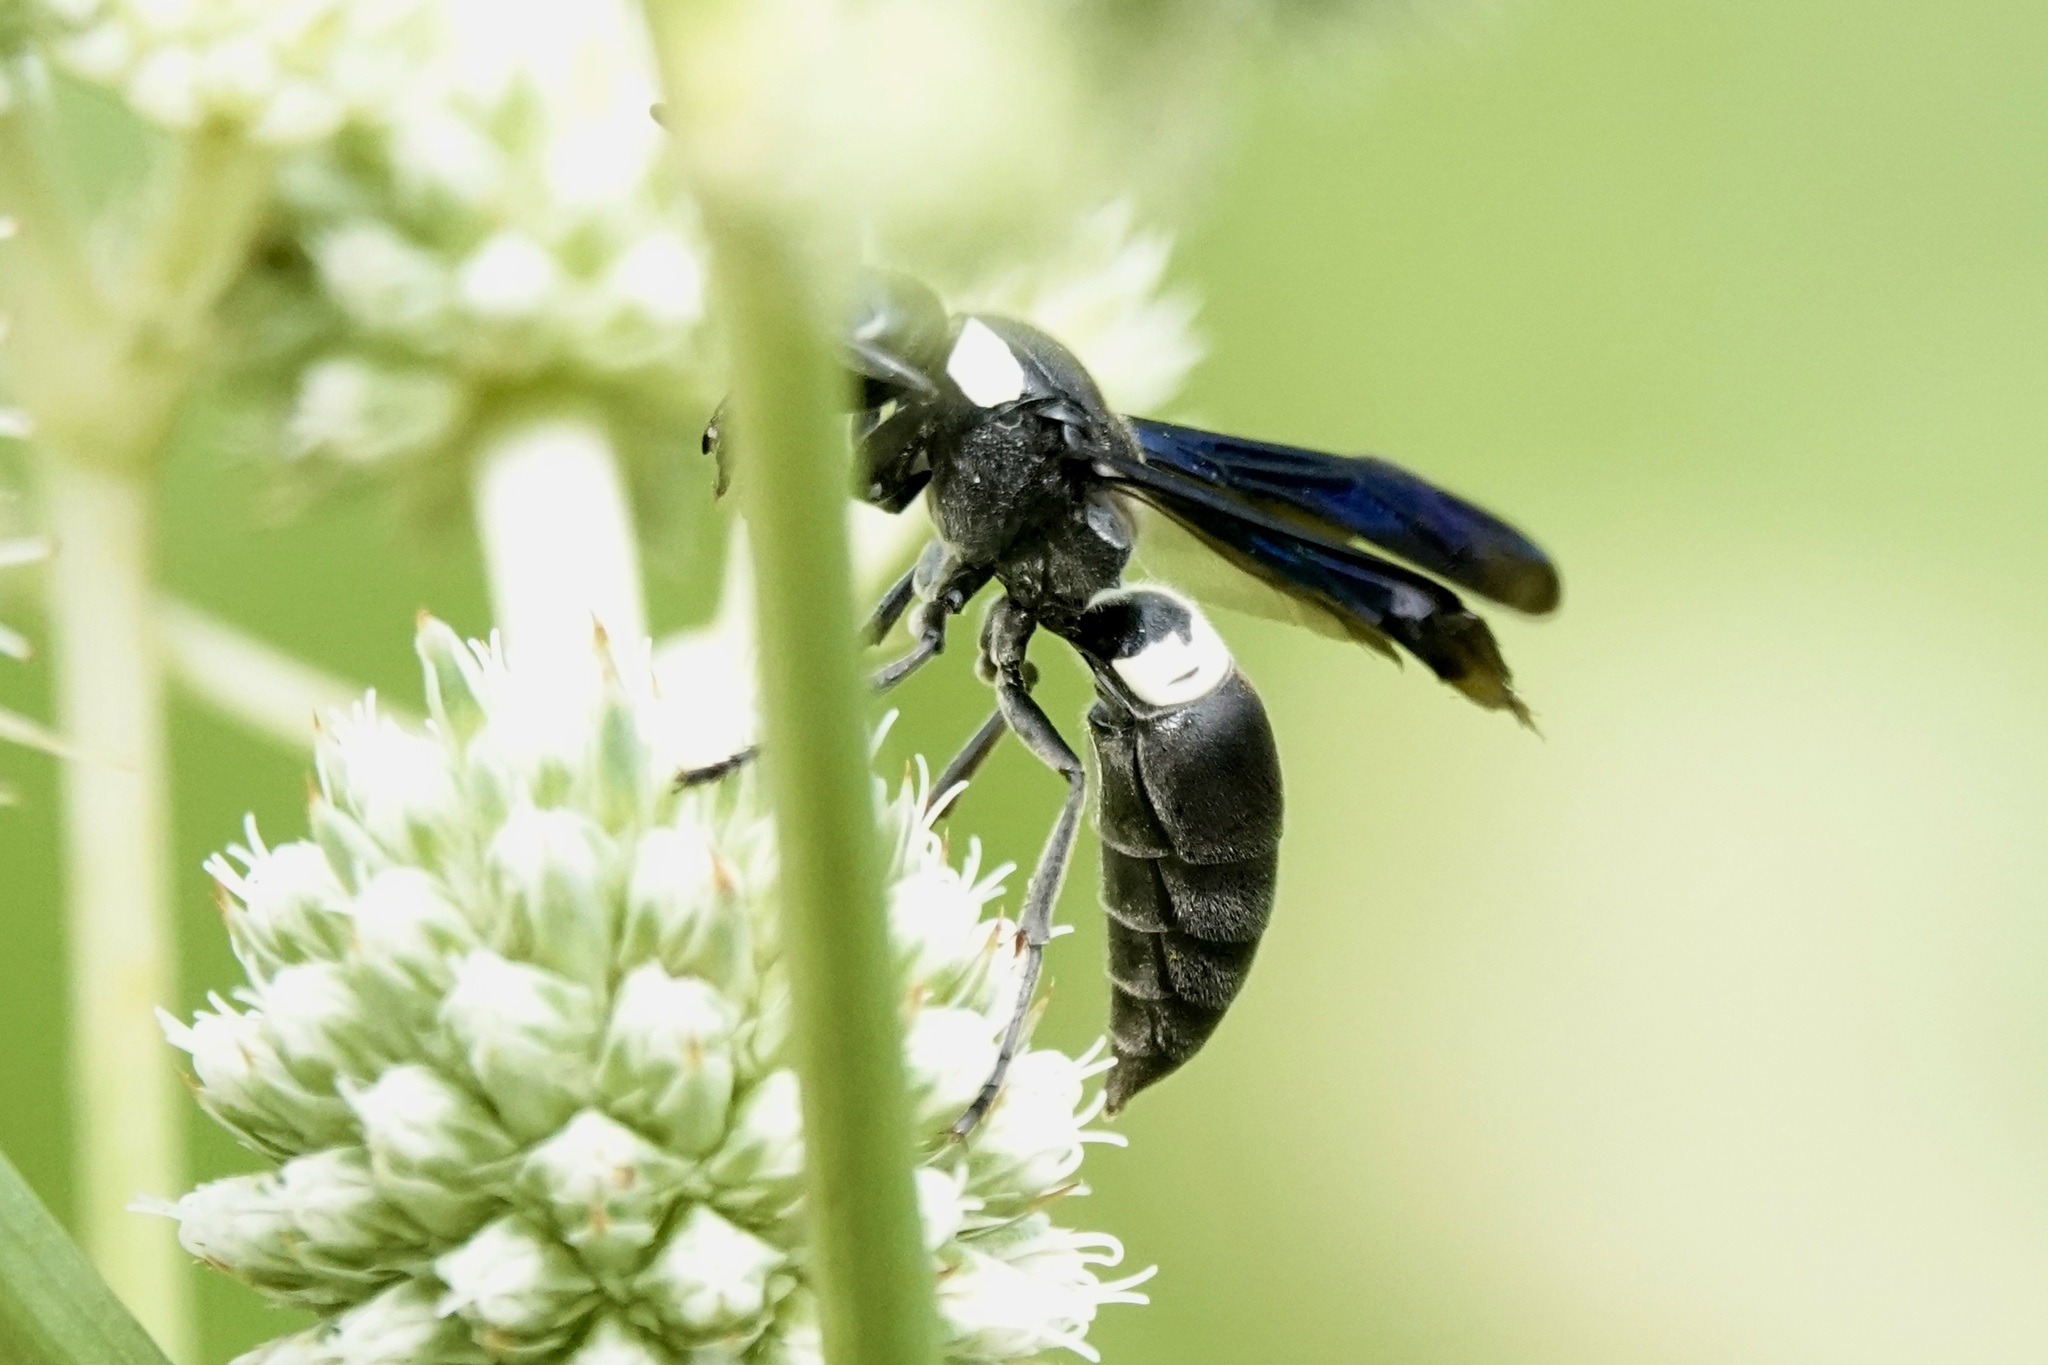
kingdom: Animalia
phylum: Arthropoda
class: Insecta
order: Hymenoptera
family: Eumenidae
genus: Monobia
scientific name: Monobia quadridens
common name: Four-toothed mason wasp
